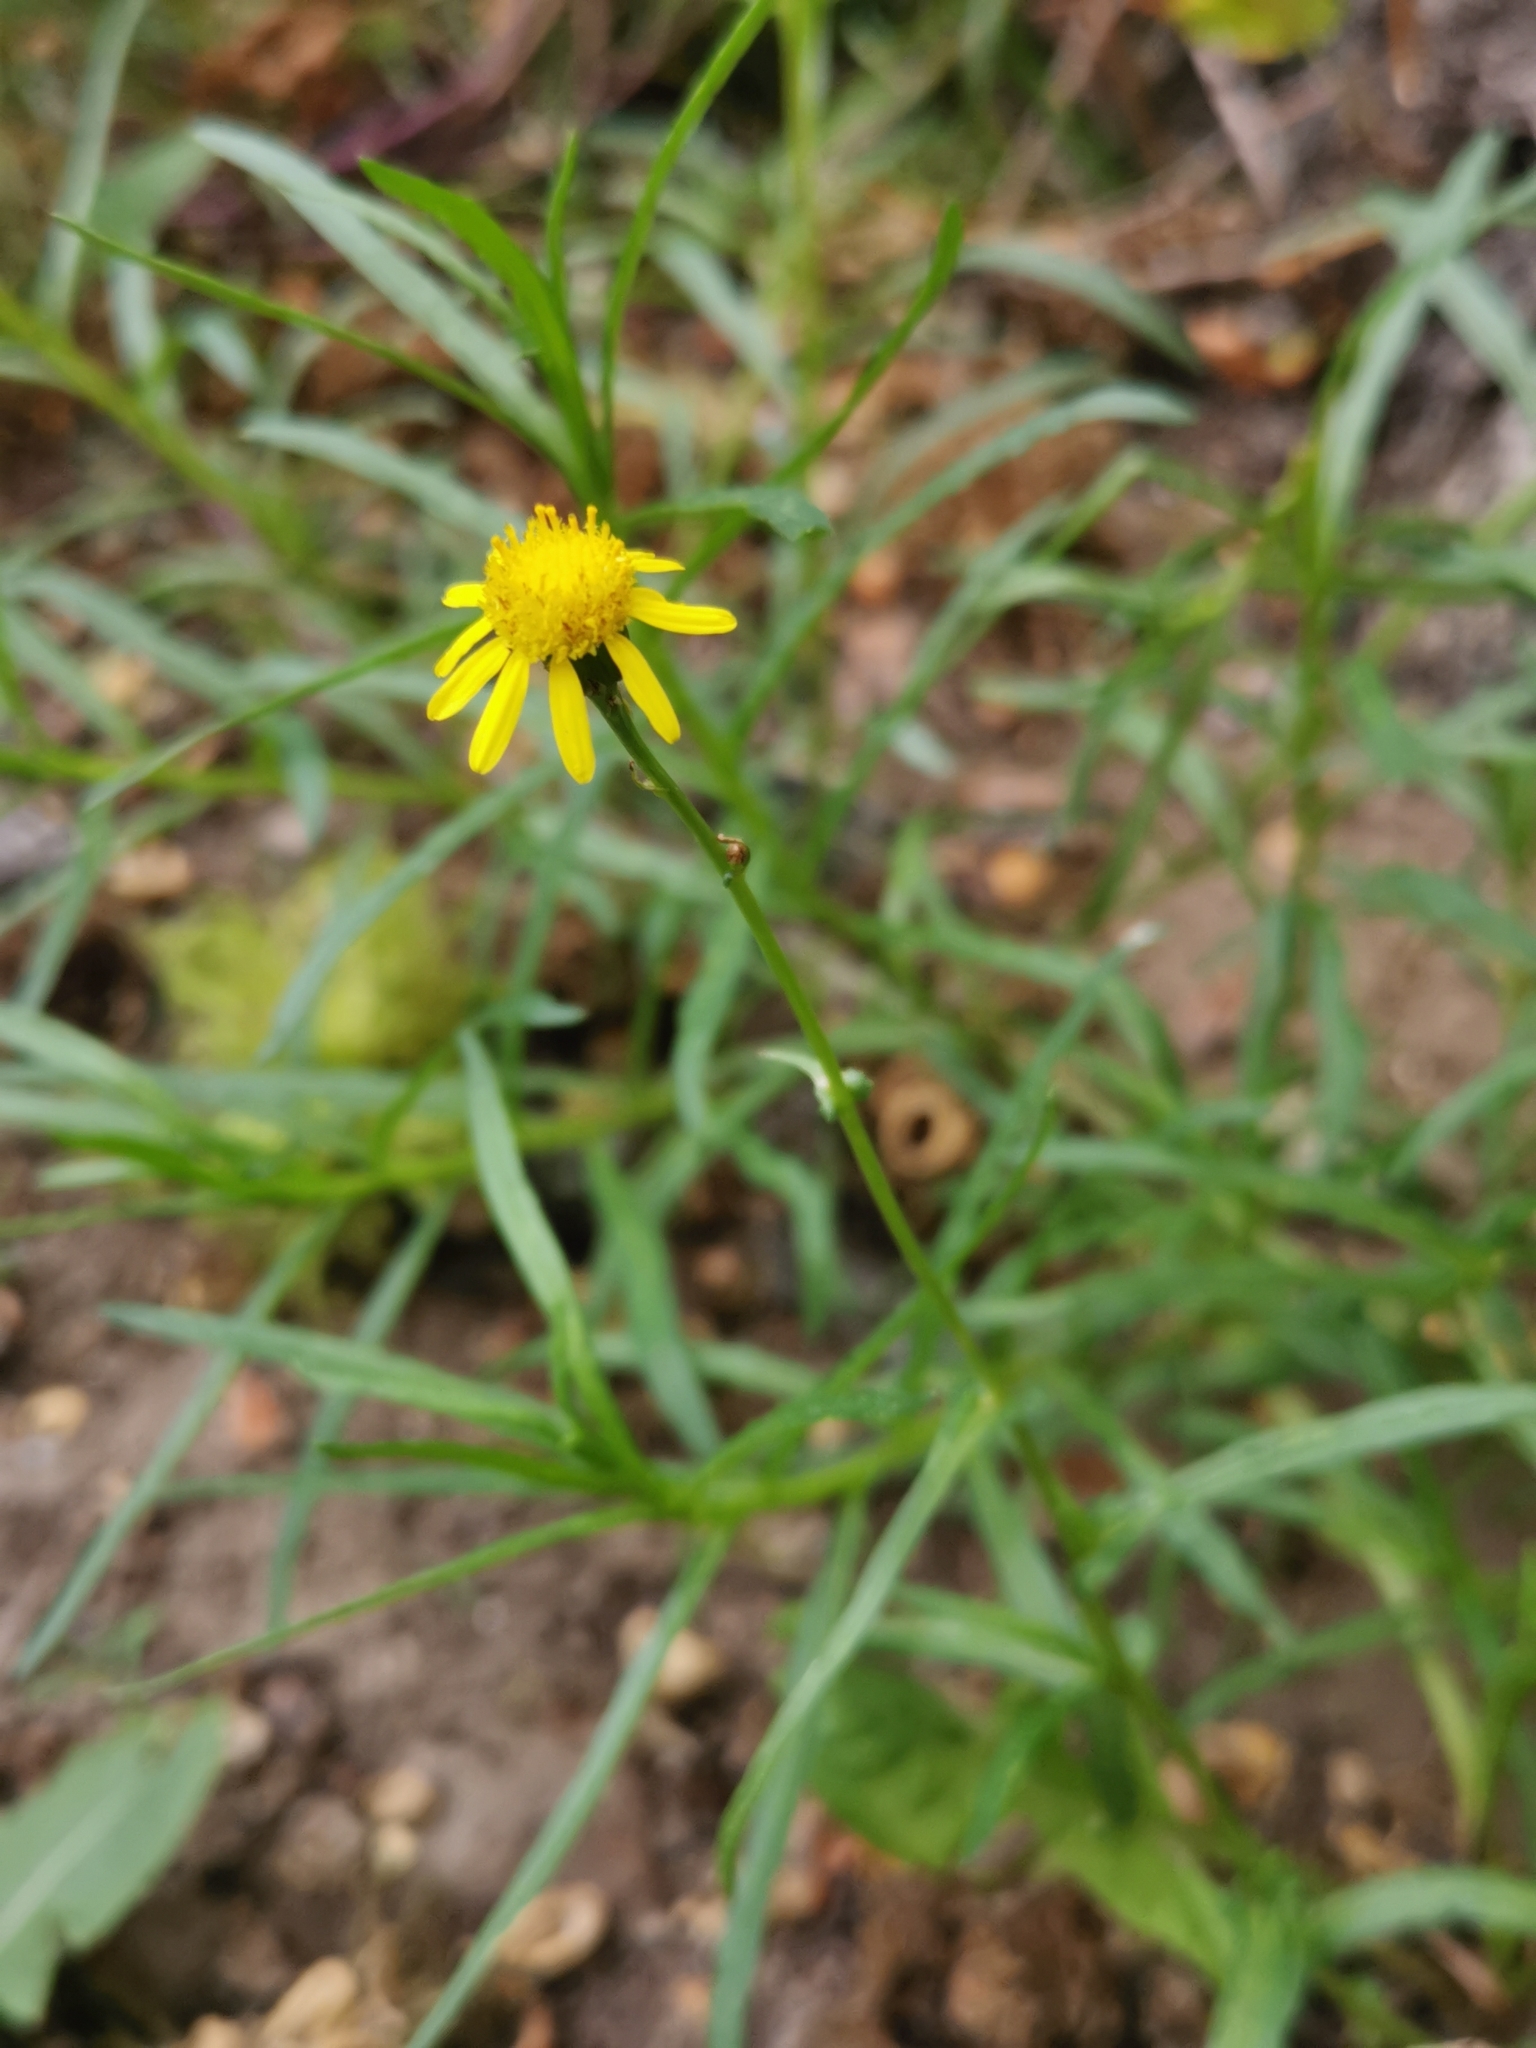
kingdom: Plantae
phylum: Tracheophyta
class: Magnoliopsida
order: Asterales
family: Asteraceae
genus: Senecio
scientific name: Senecio inaequidens
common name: Narrow-leaved ragwort
